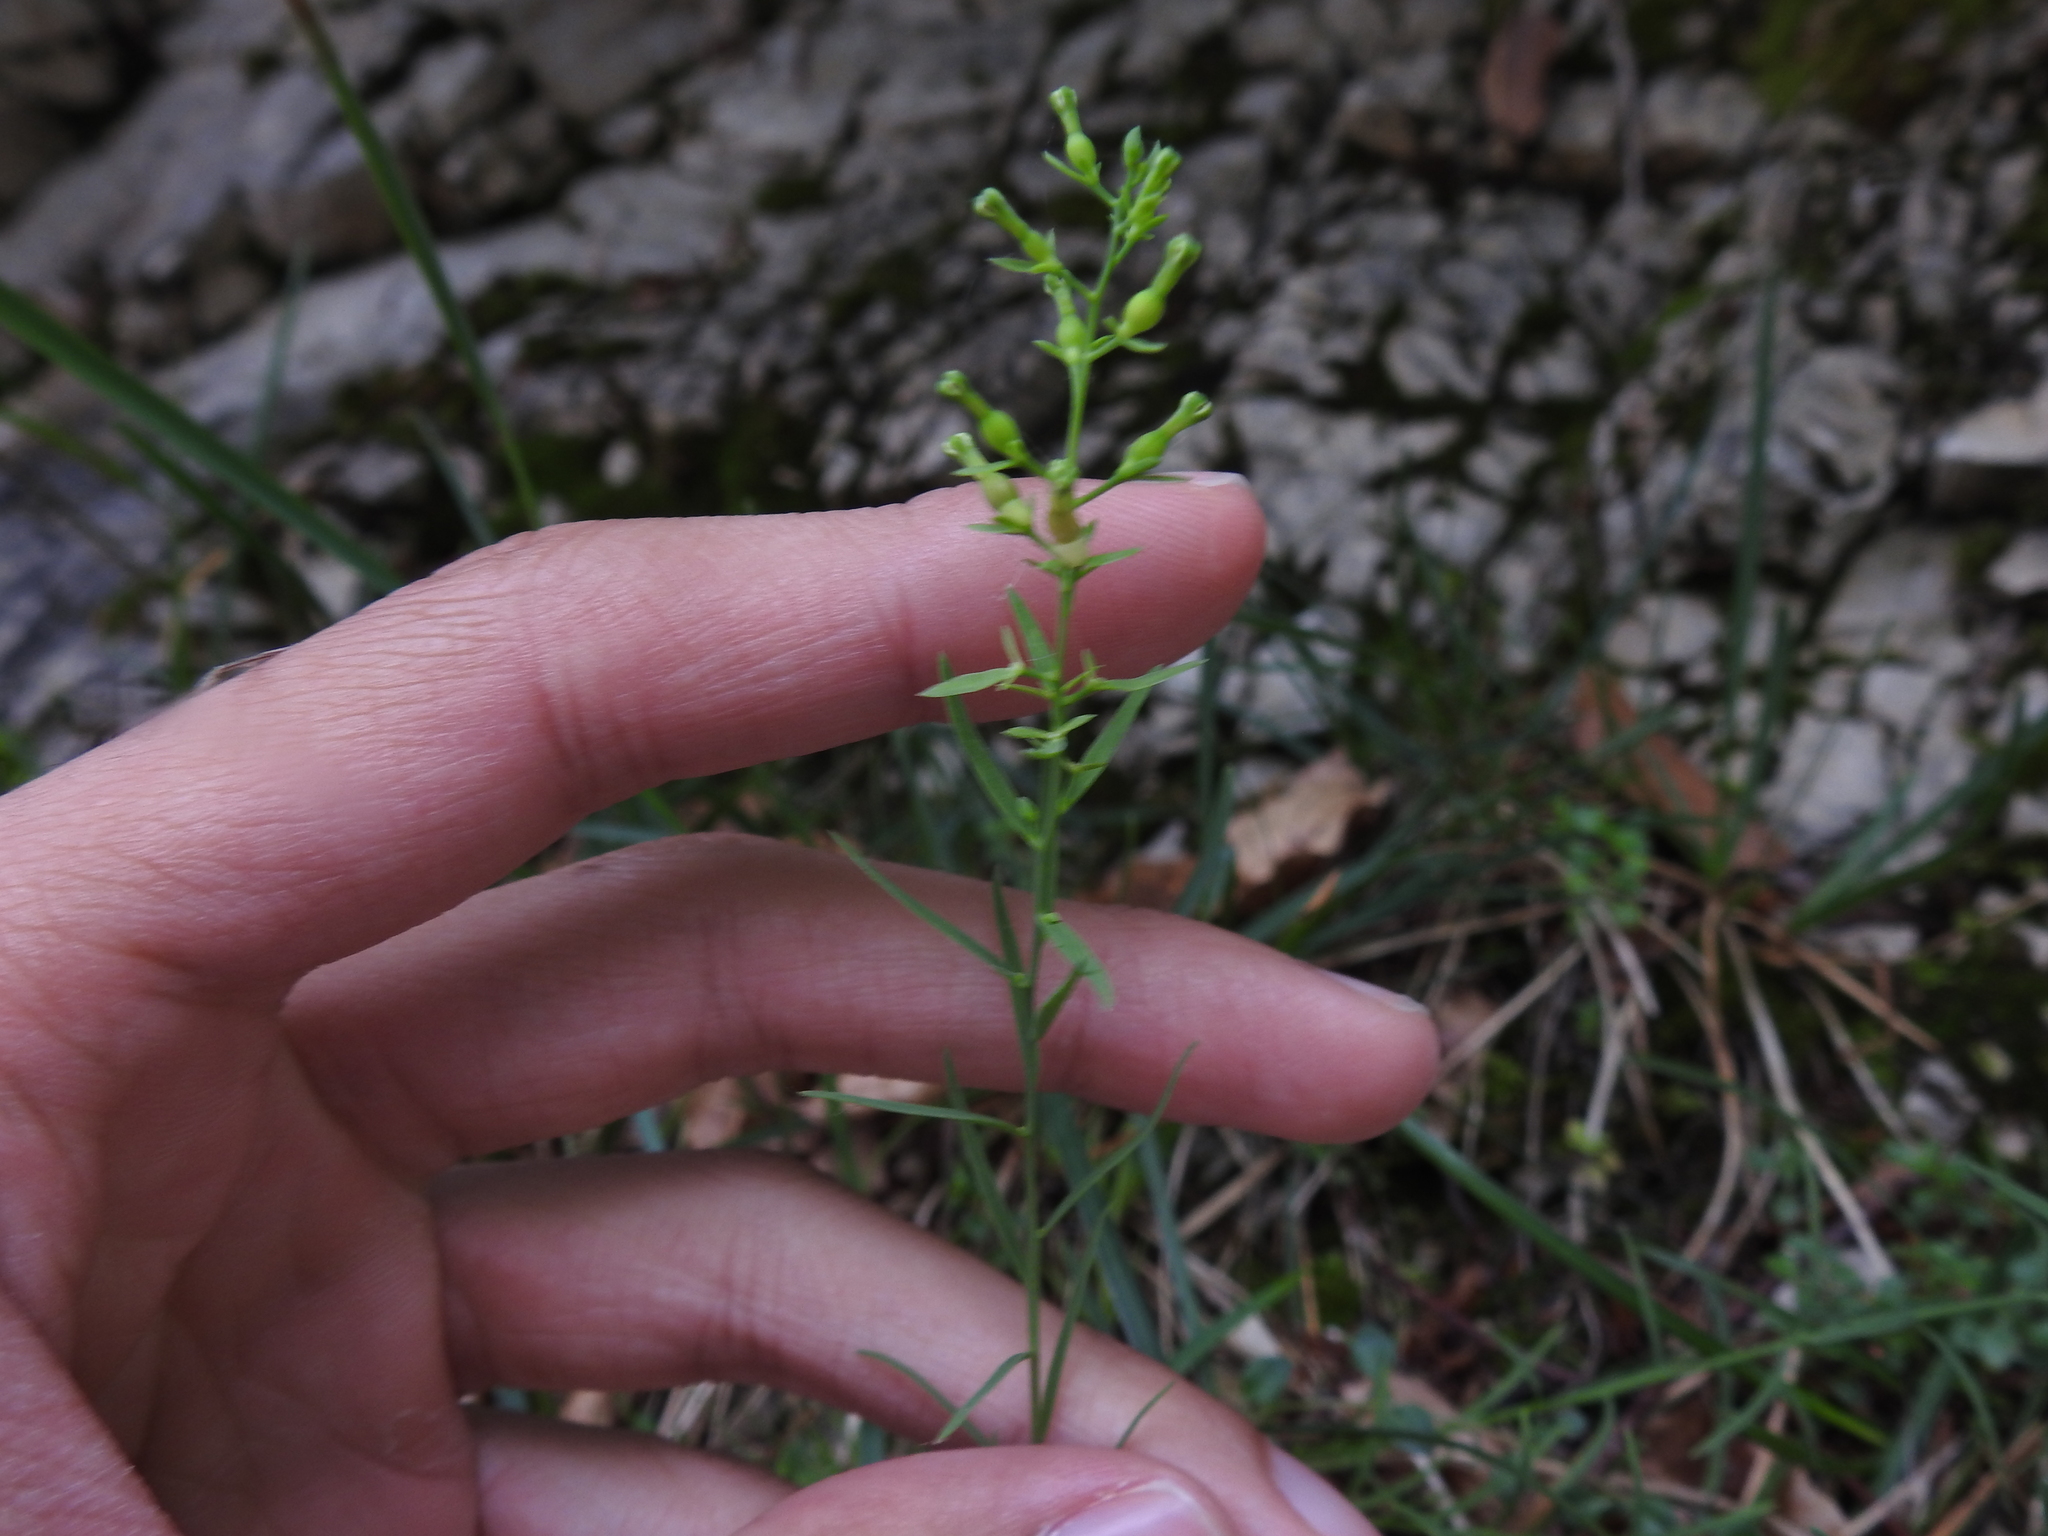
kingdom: Plantae
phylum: Tracheophyta
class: Magnoliopsida
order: Santalales
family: Thesiaceae
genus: Thesium
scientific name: Thesium alpinum
